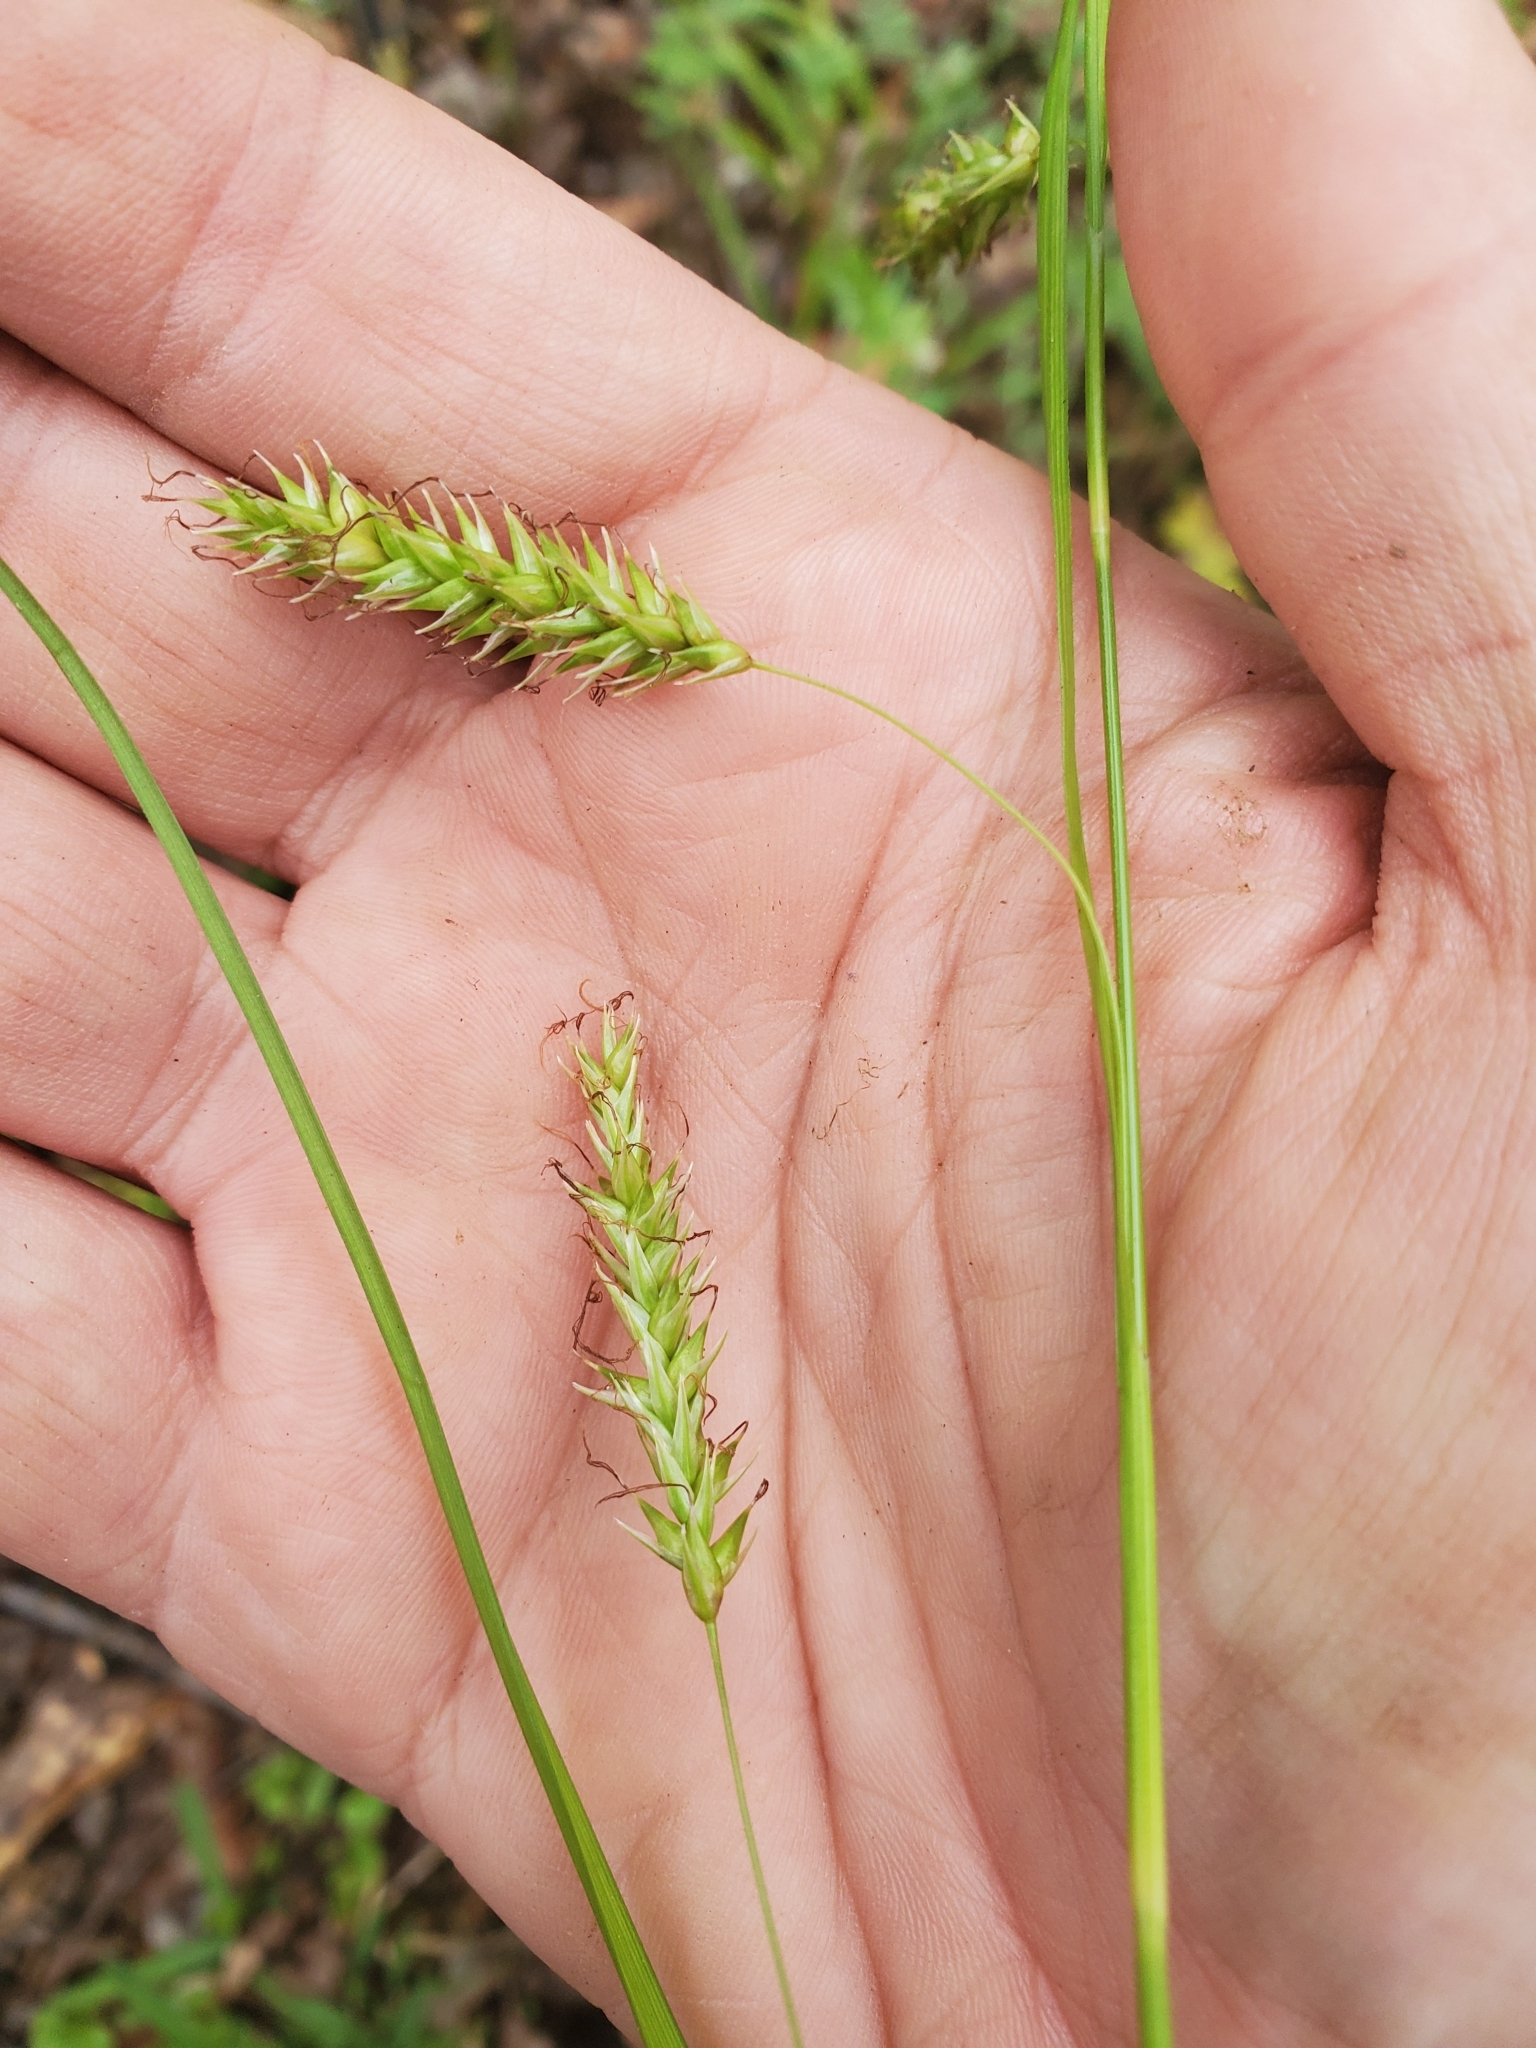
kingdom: Plantae
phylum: Tracheophyta
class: Liliopsida
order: Poales
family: Cyperaceae
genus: Carex
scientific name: Carex cherokeensis
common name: Cherokee sedge
